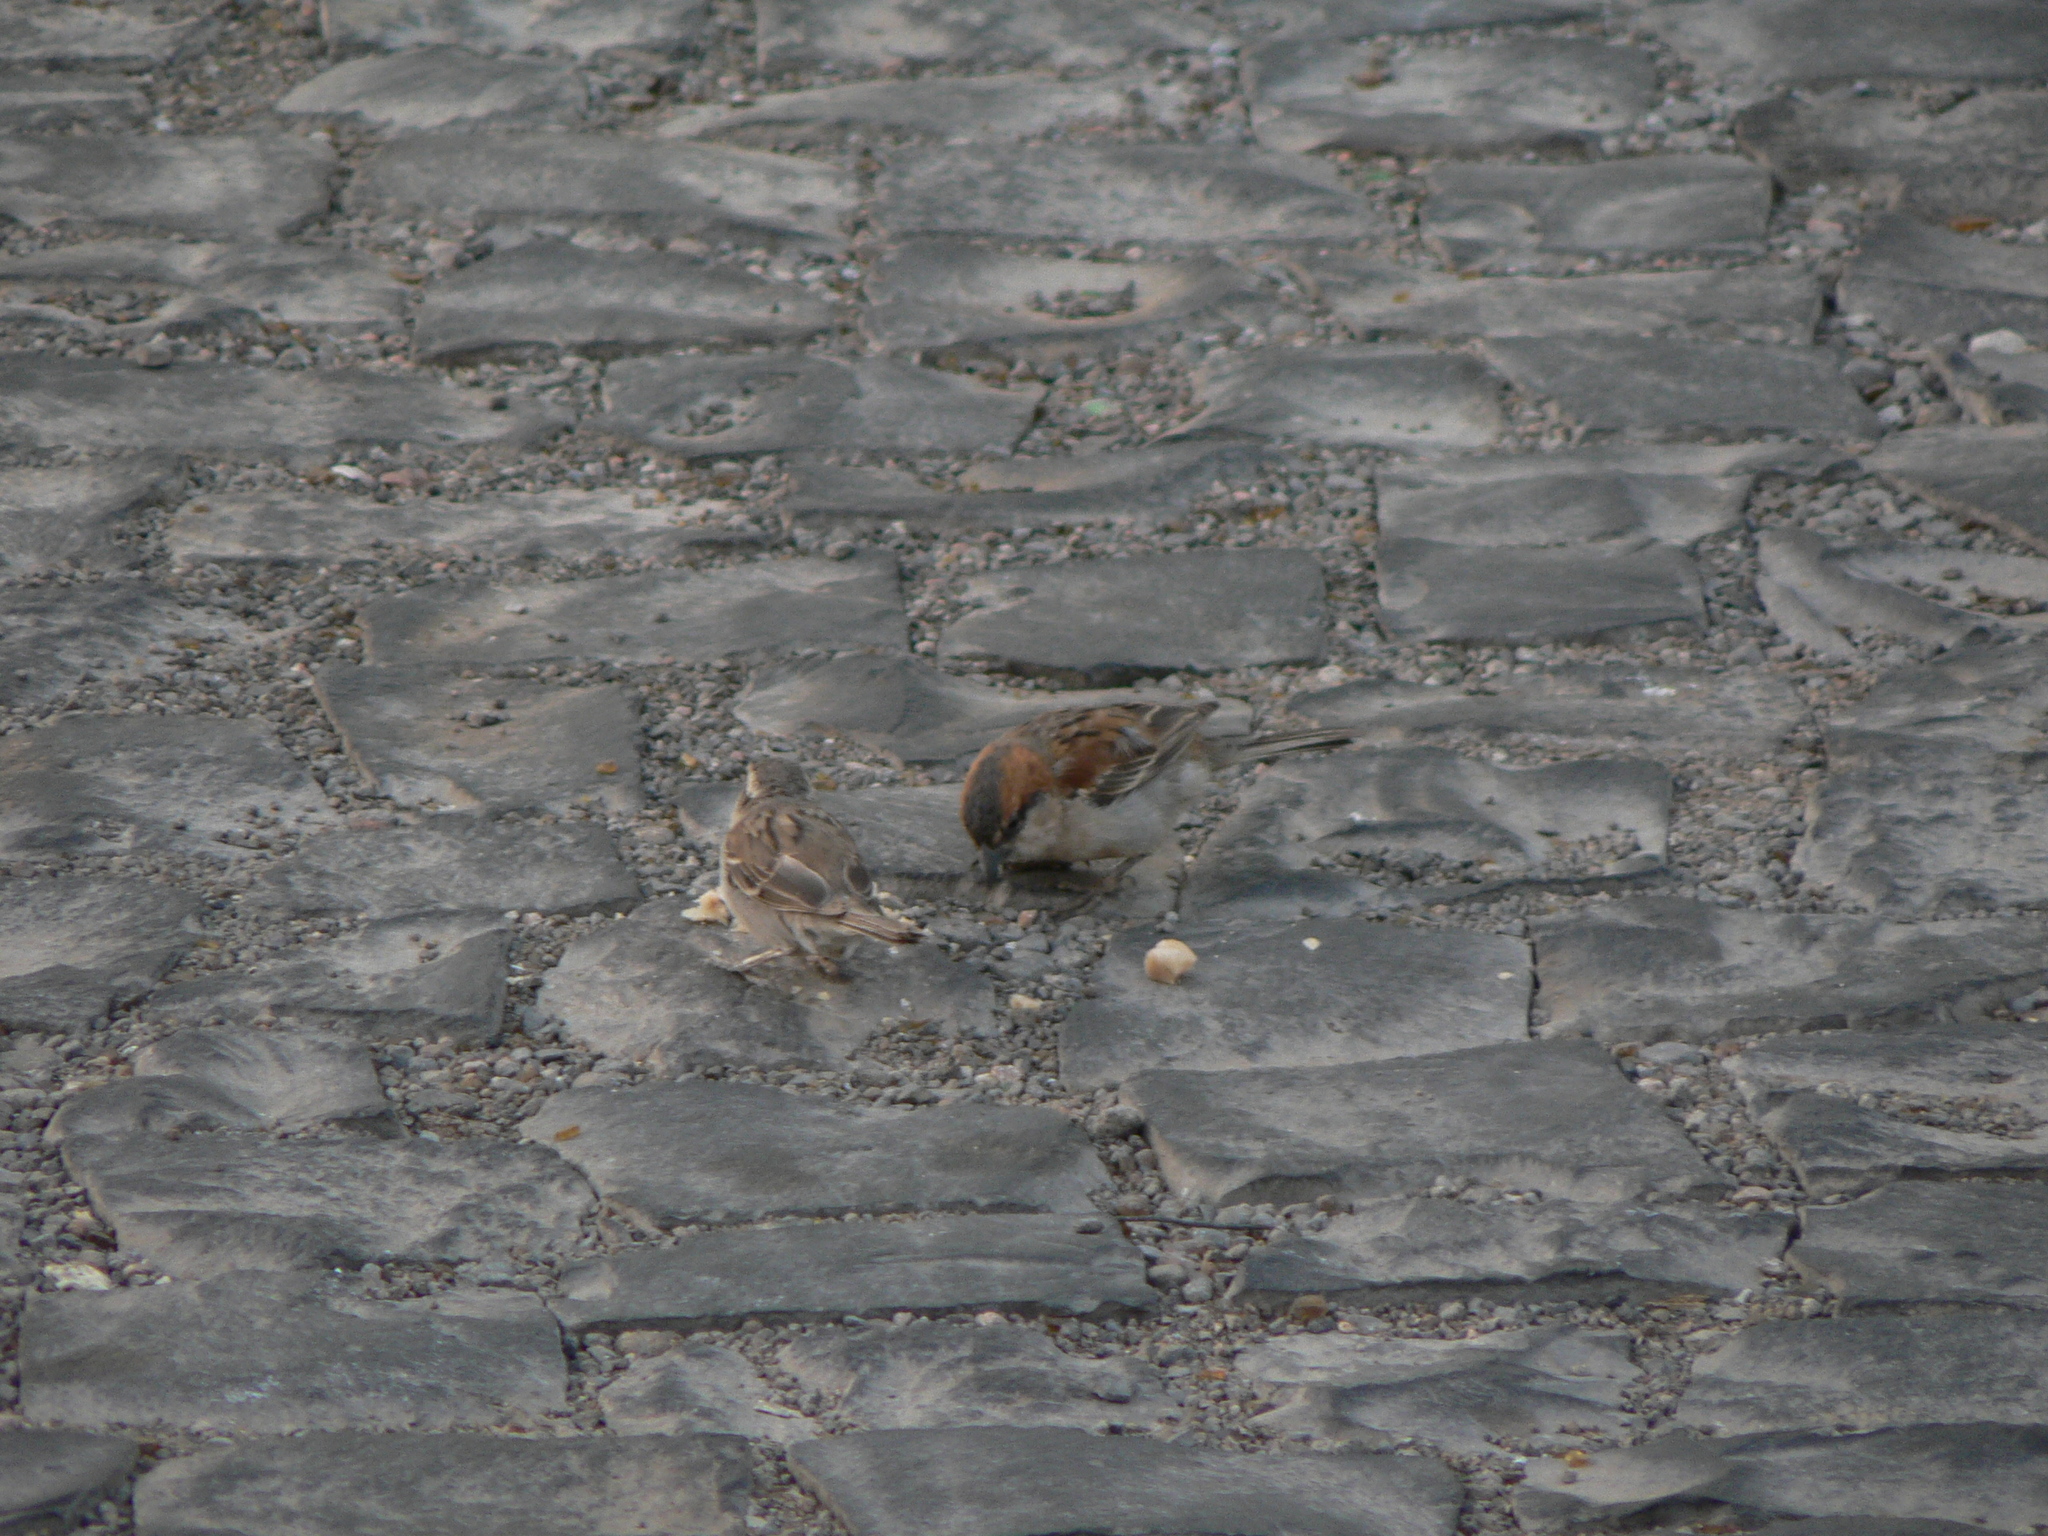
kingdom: Animalia
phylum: Chordata
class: Aves
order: Passeriformes
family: Passeridae
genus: Passer
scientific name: Passer iagoensis
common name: Iago sparrow
